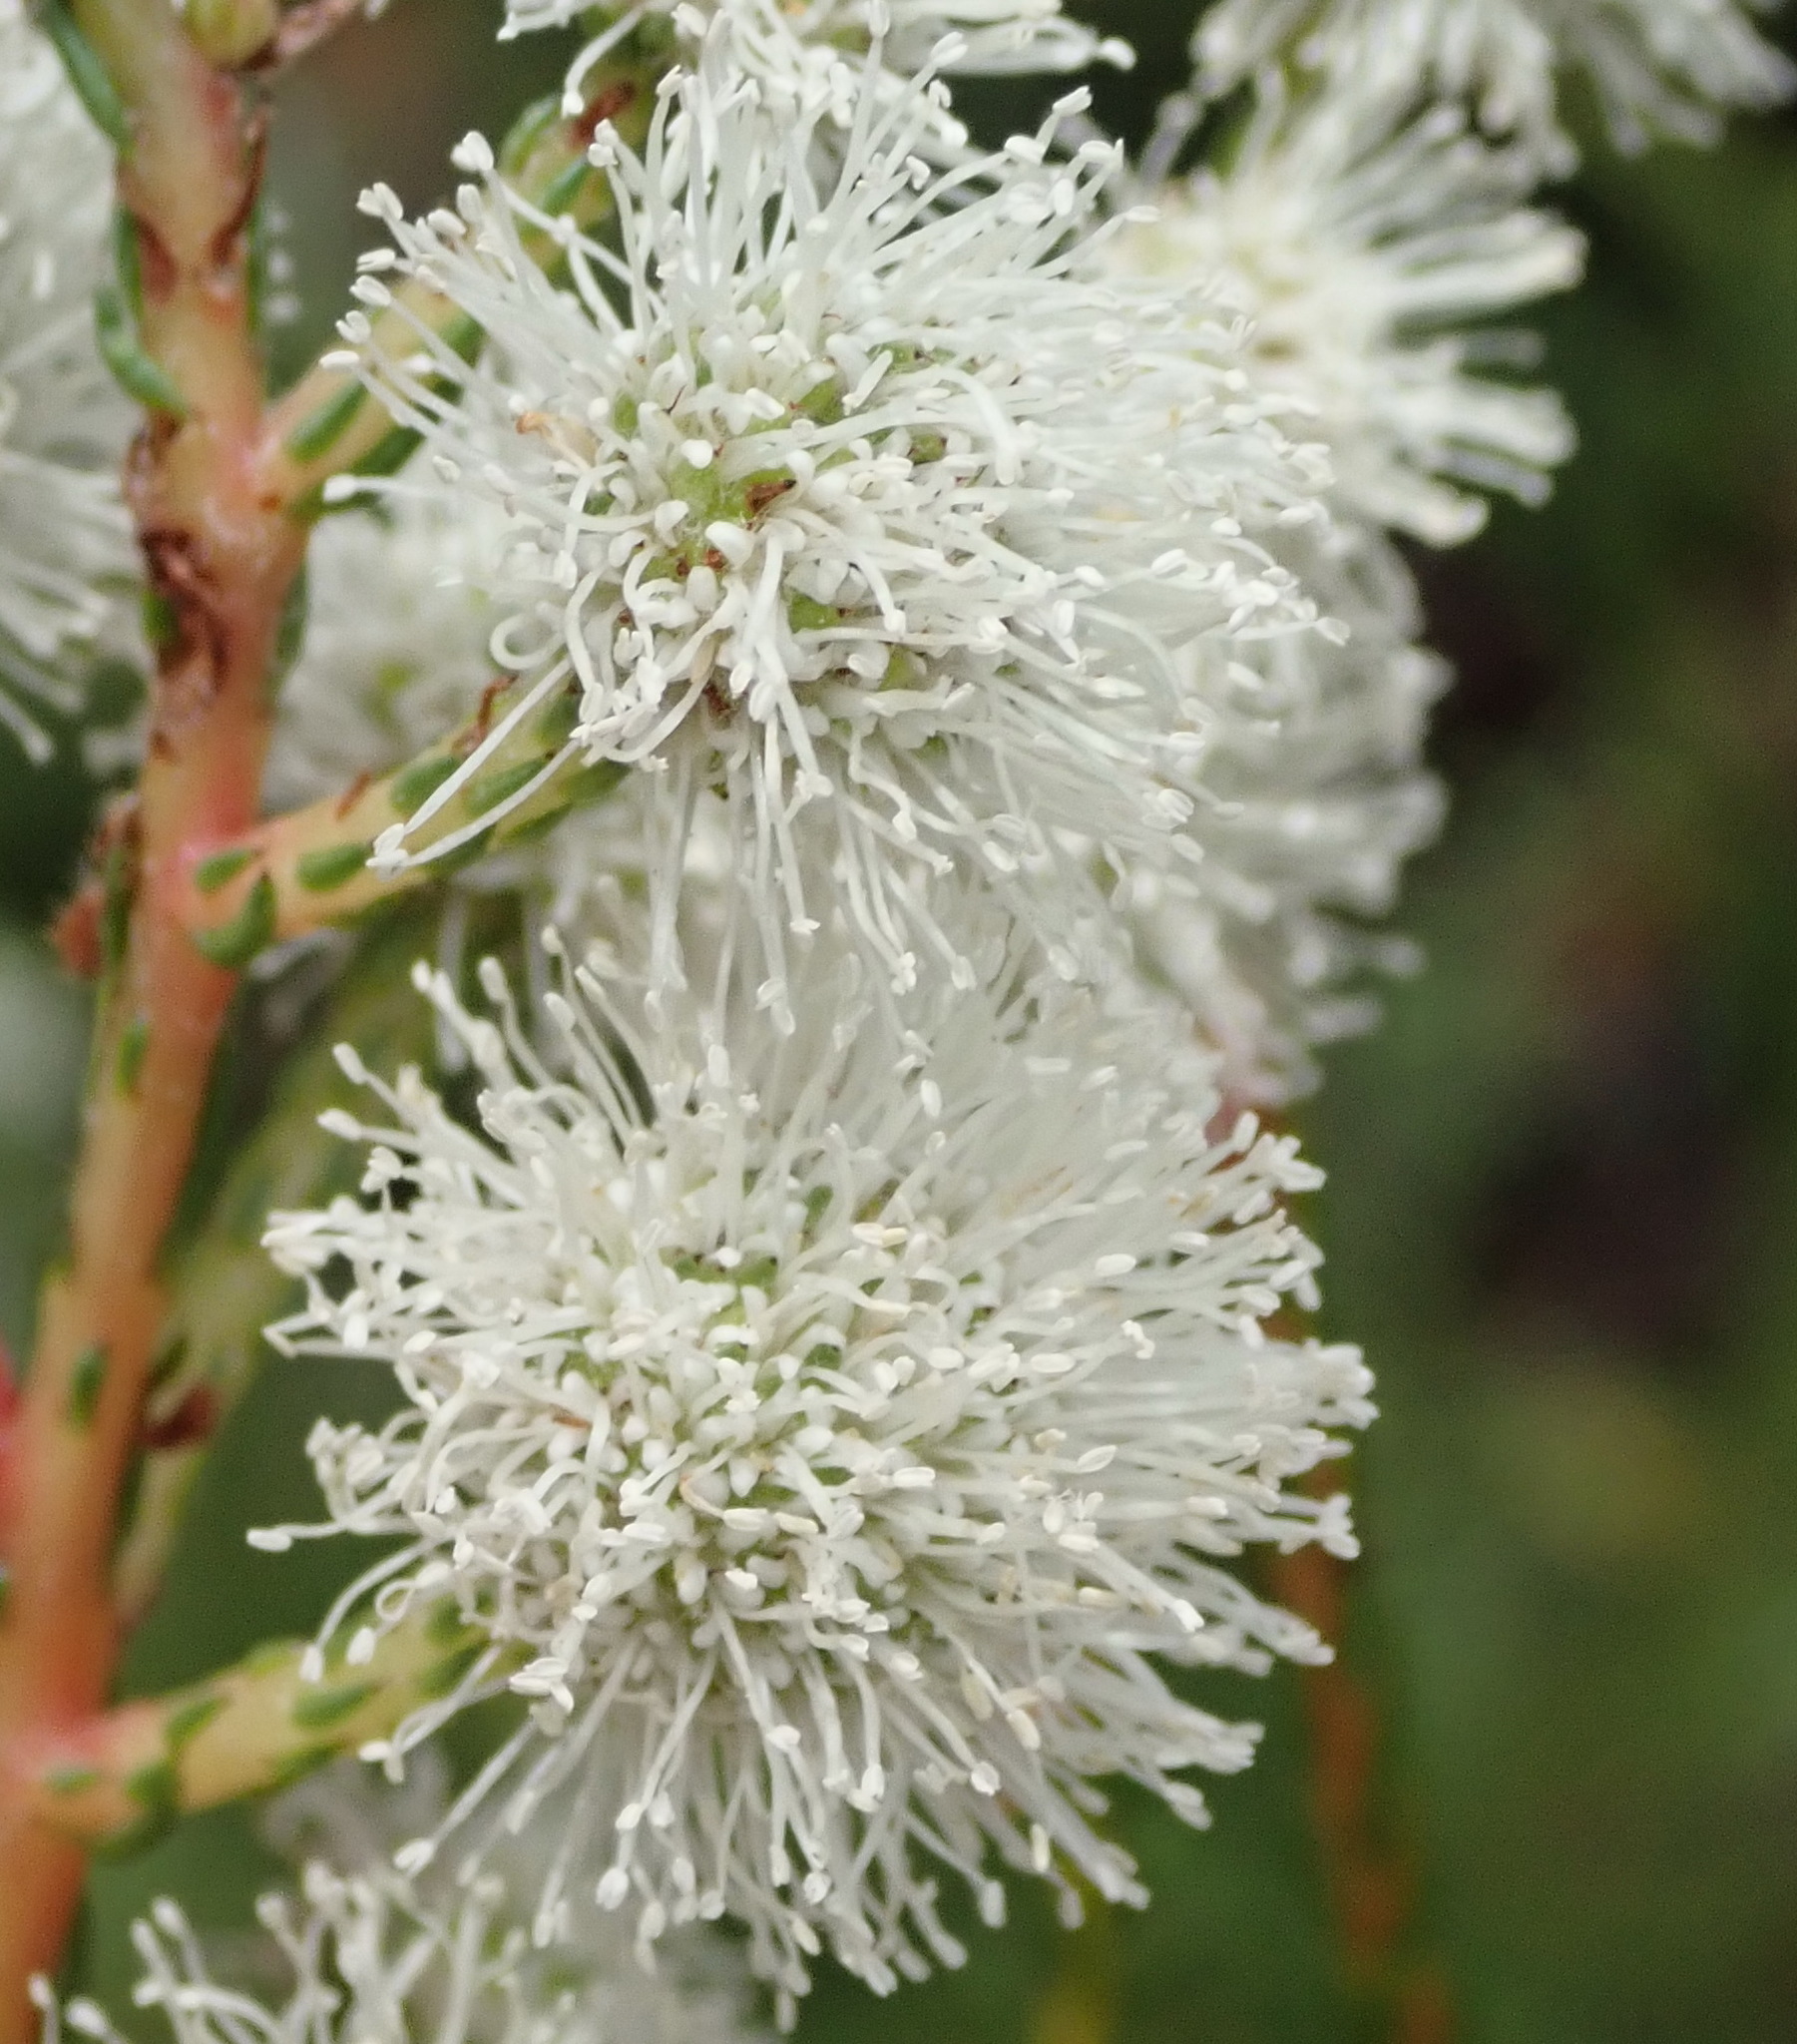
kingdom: Plantae
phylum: Tracheophyta
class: Magnoliopsida
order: Bruniales
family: Bruniaceae
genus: Berzelia
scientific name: Berzelia intermedia
